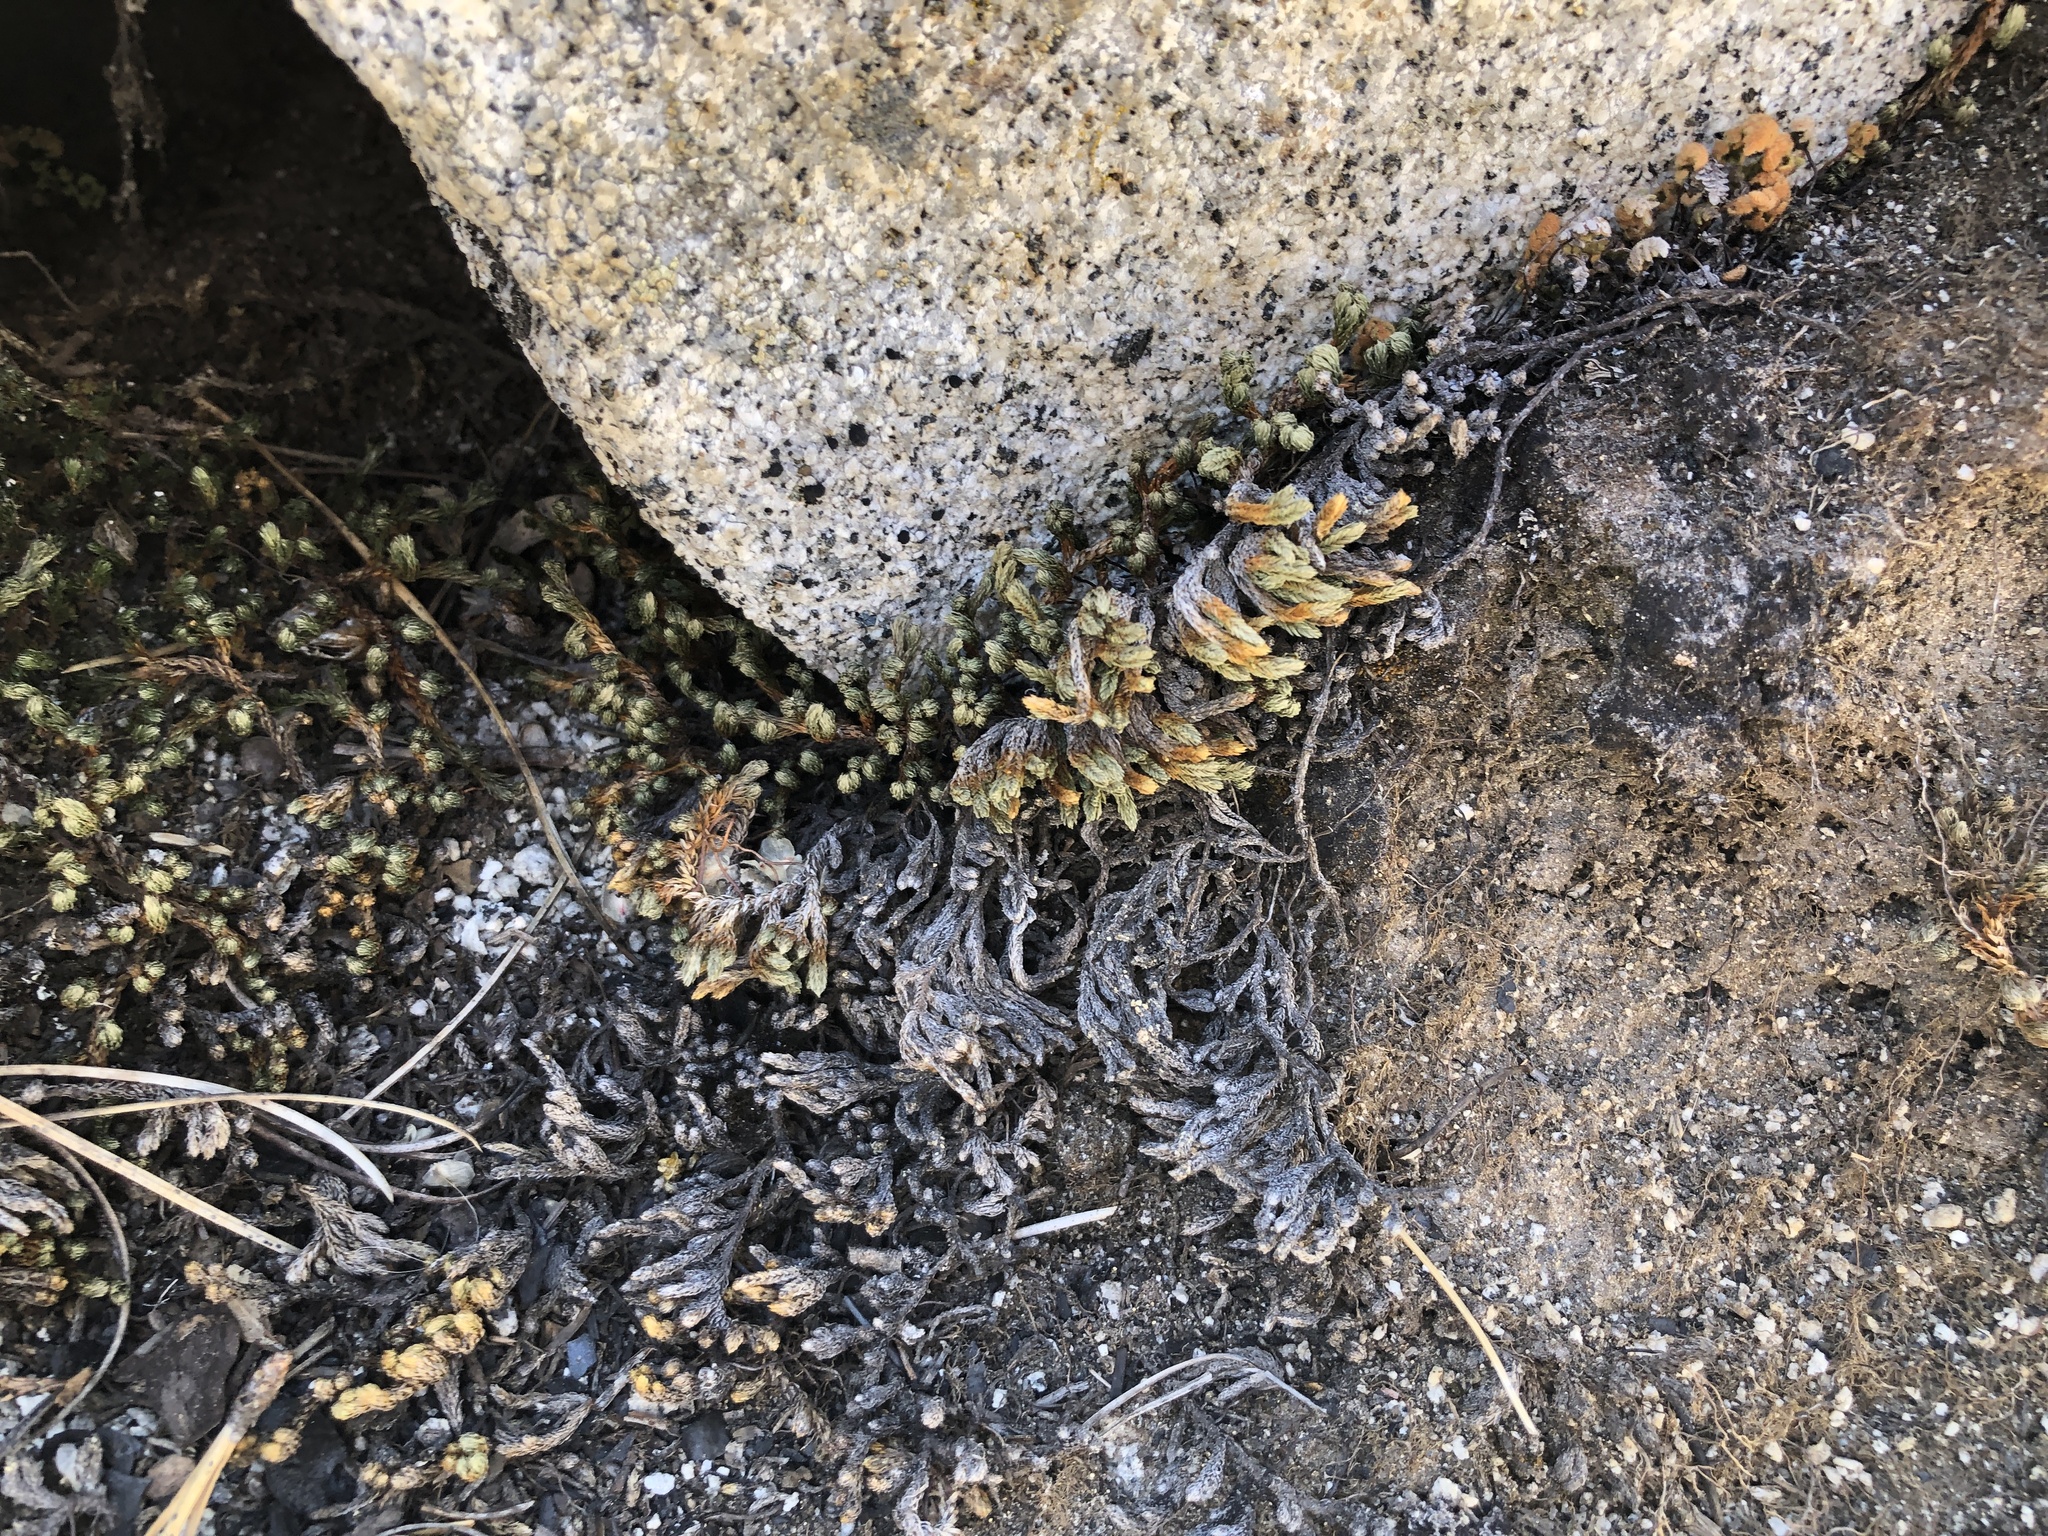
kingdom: Plantae
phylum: Tracheophyta
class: Lycopodiopsida
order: Selaginellales
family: Selaginellaceae
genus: Selaginella
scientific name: Selaginella watsonii
